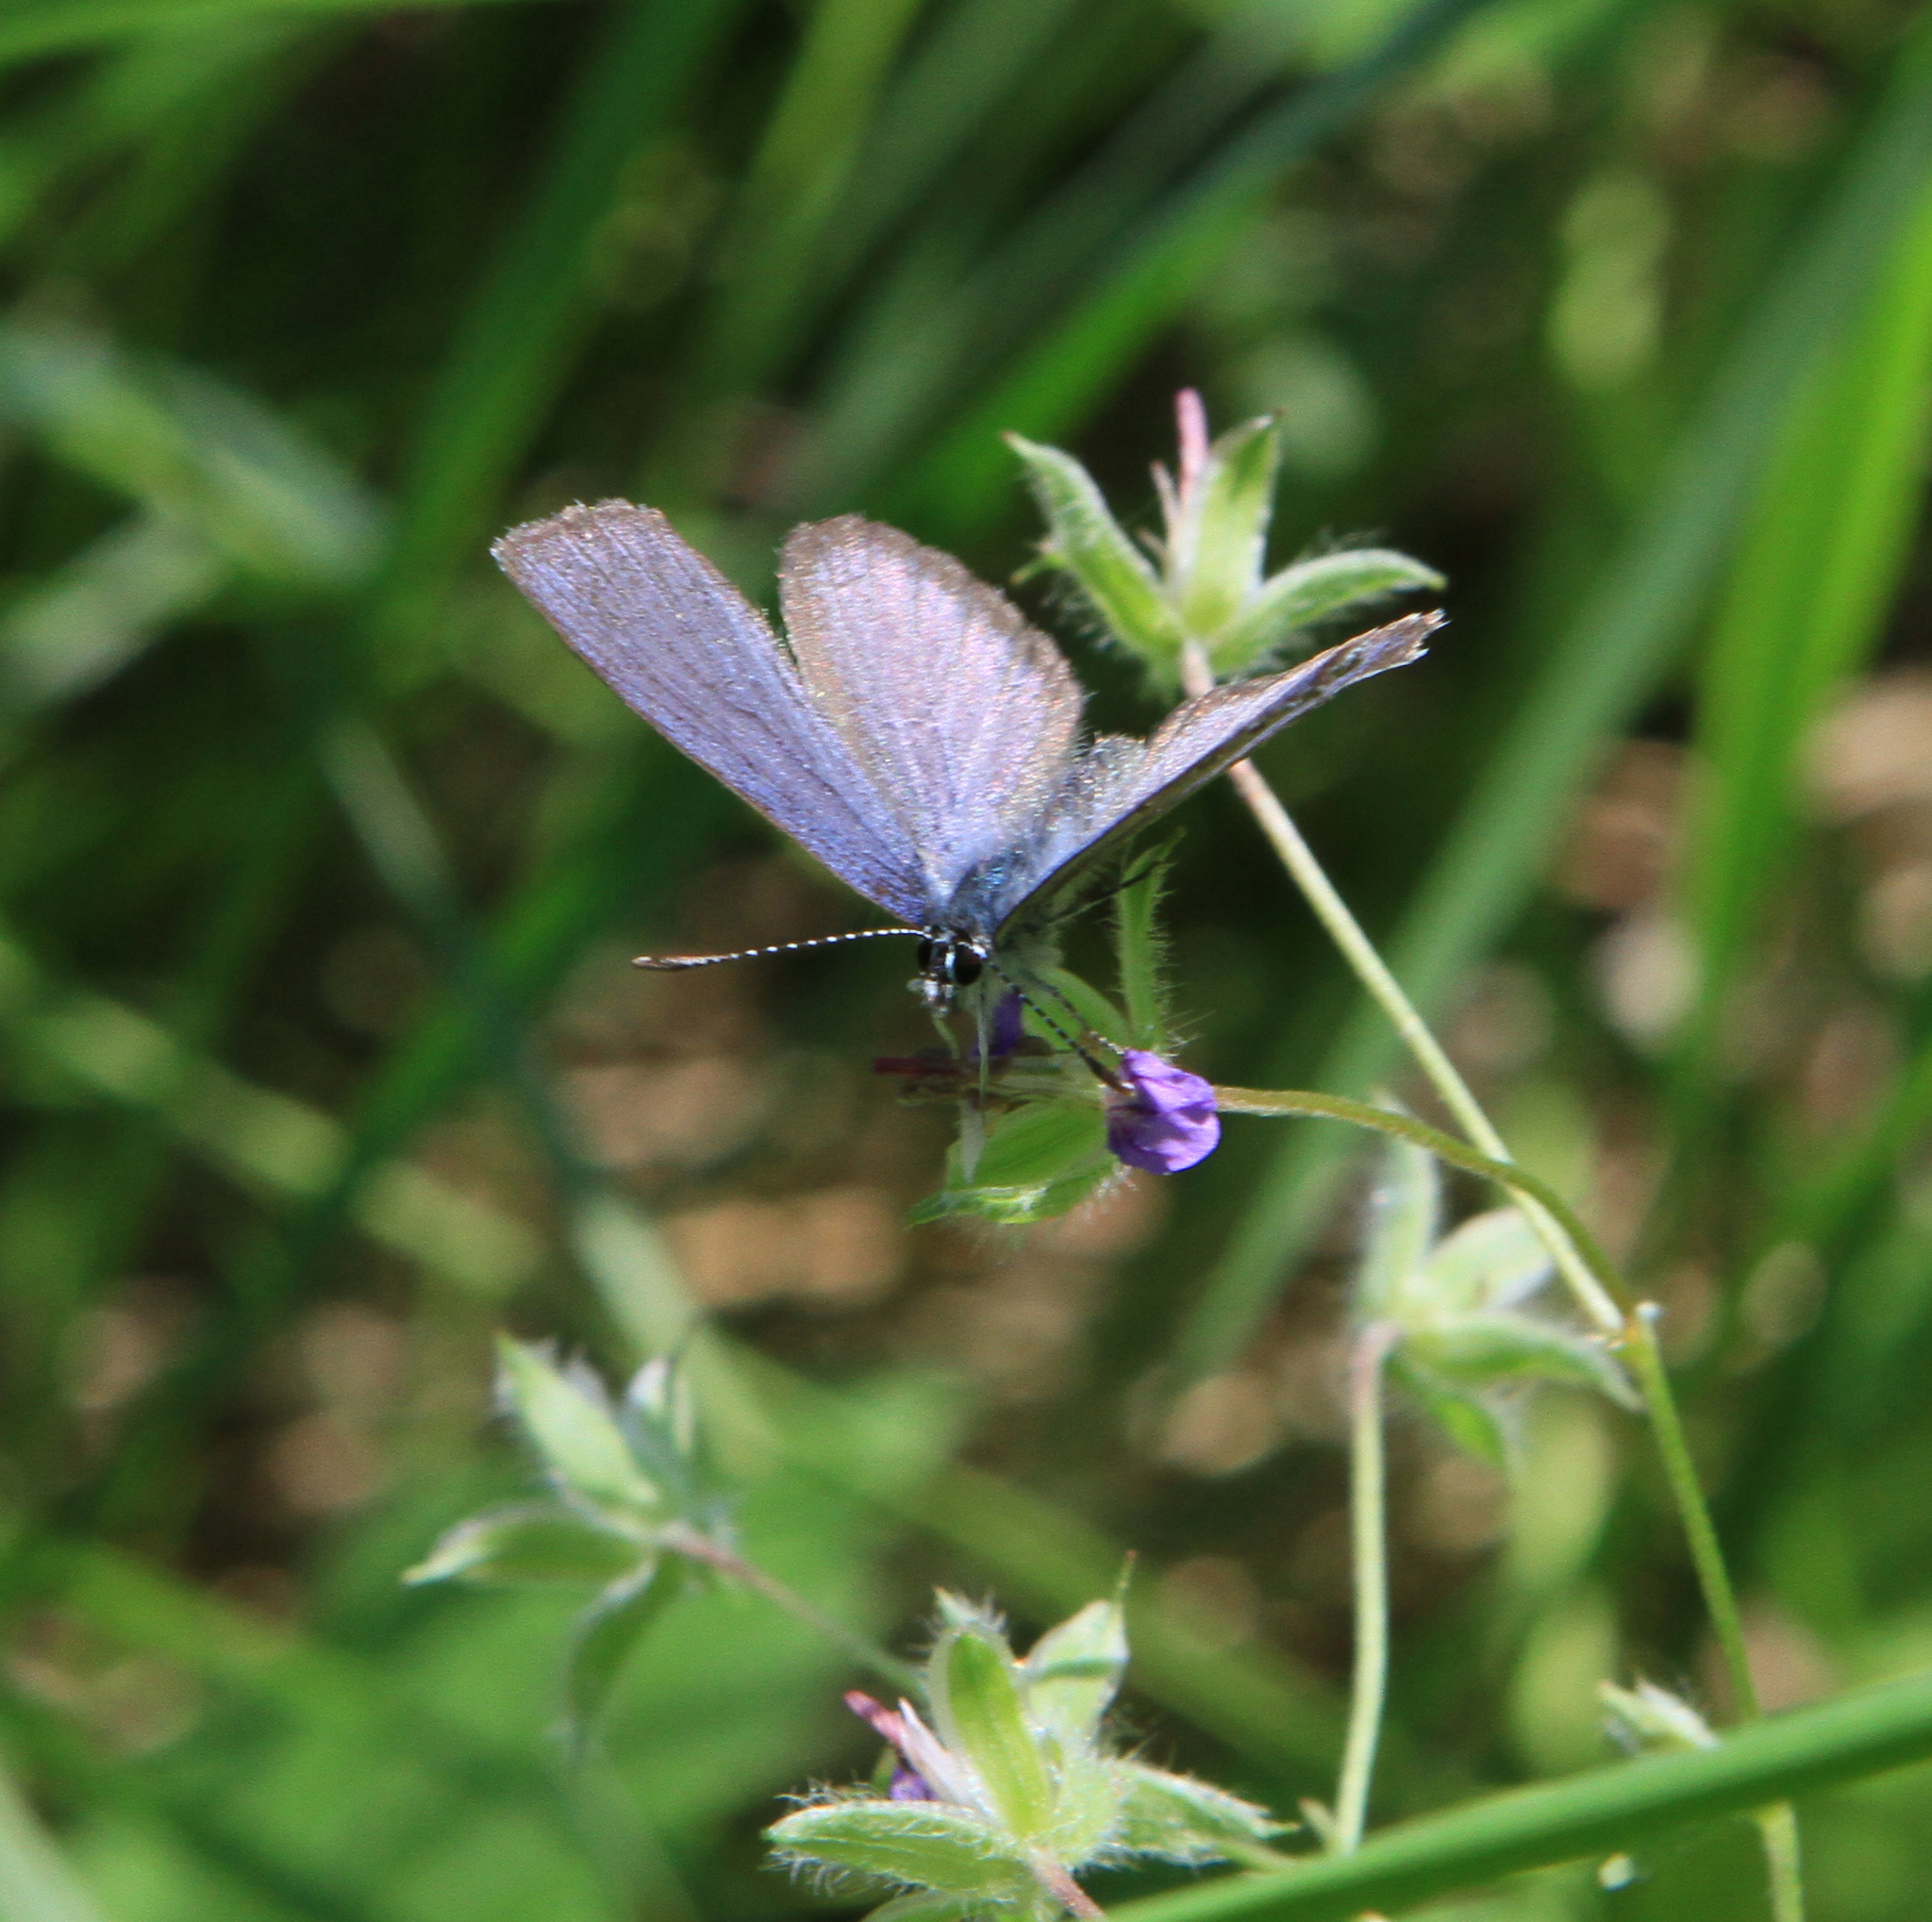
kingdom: Animalia
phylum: Arthropoda
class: Insecta
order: Lepidoptera
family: Lycaenidae
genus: Vacciniina
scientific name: Vacciniina optilete
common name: Cranberry blue
